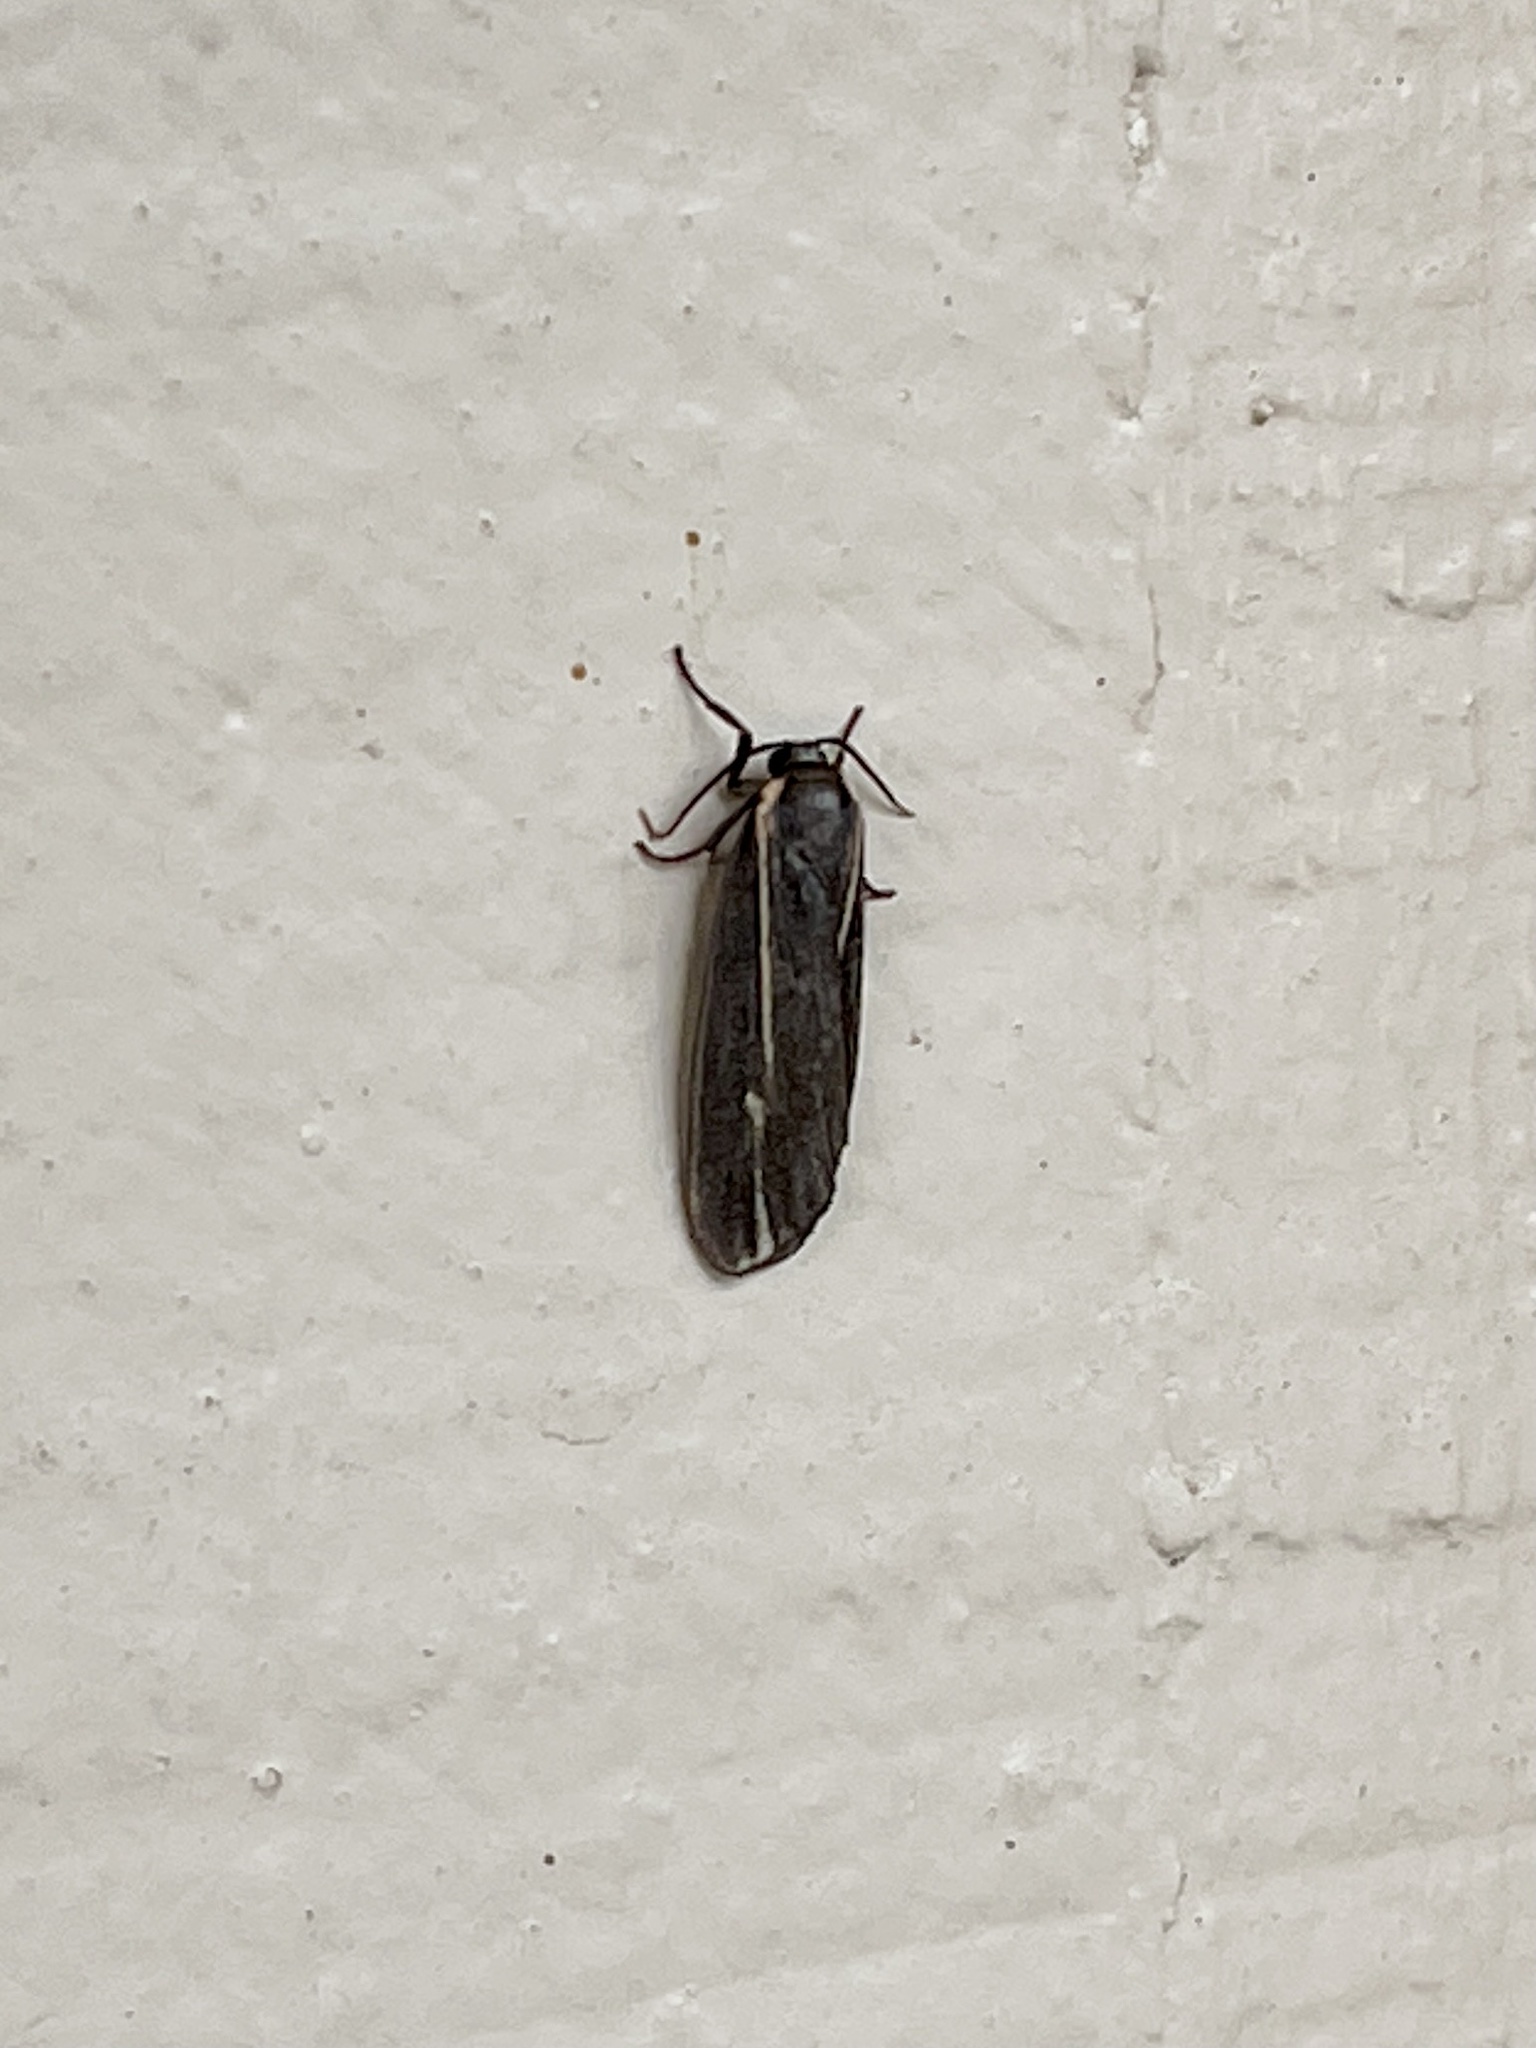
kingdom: Animalia
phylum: Arthropoda
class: Insecta
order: Lepidoptera
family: Erebidae
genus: Hypoprepia
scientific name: Hypoprepia inculta
